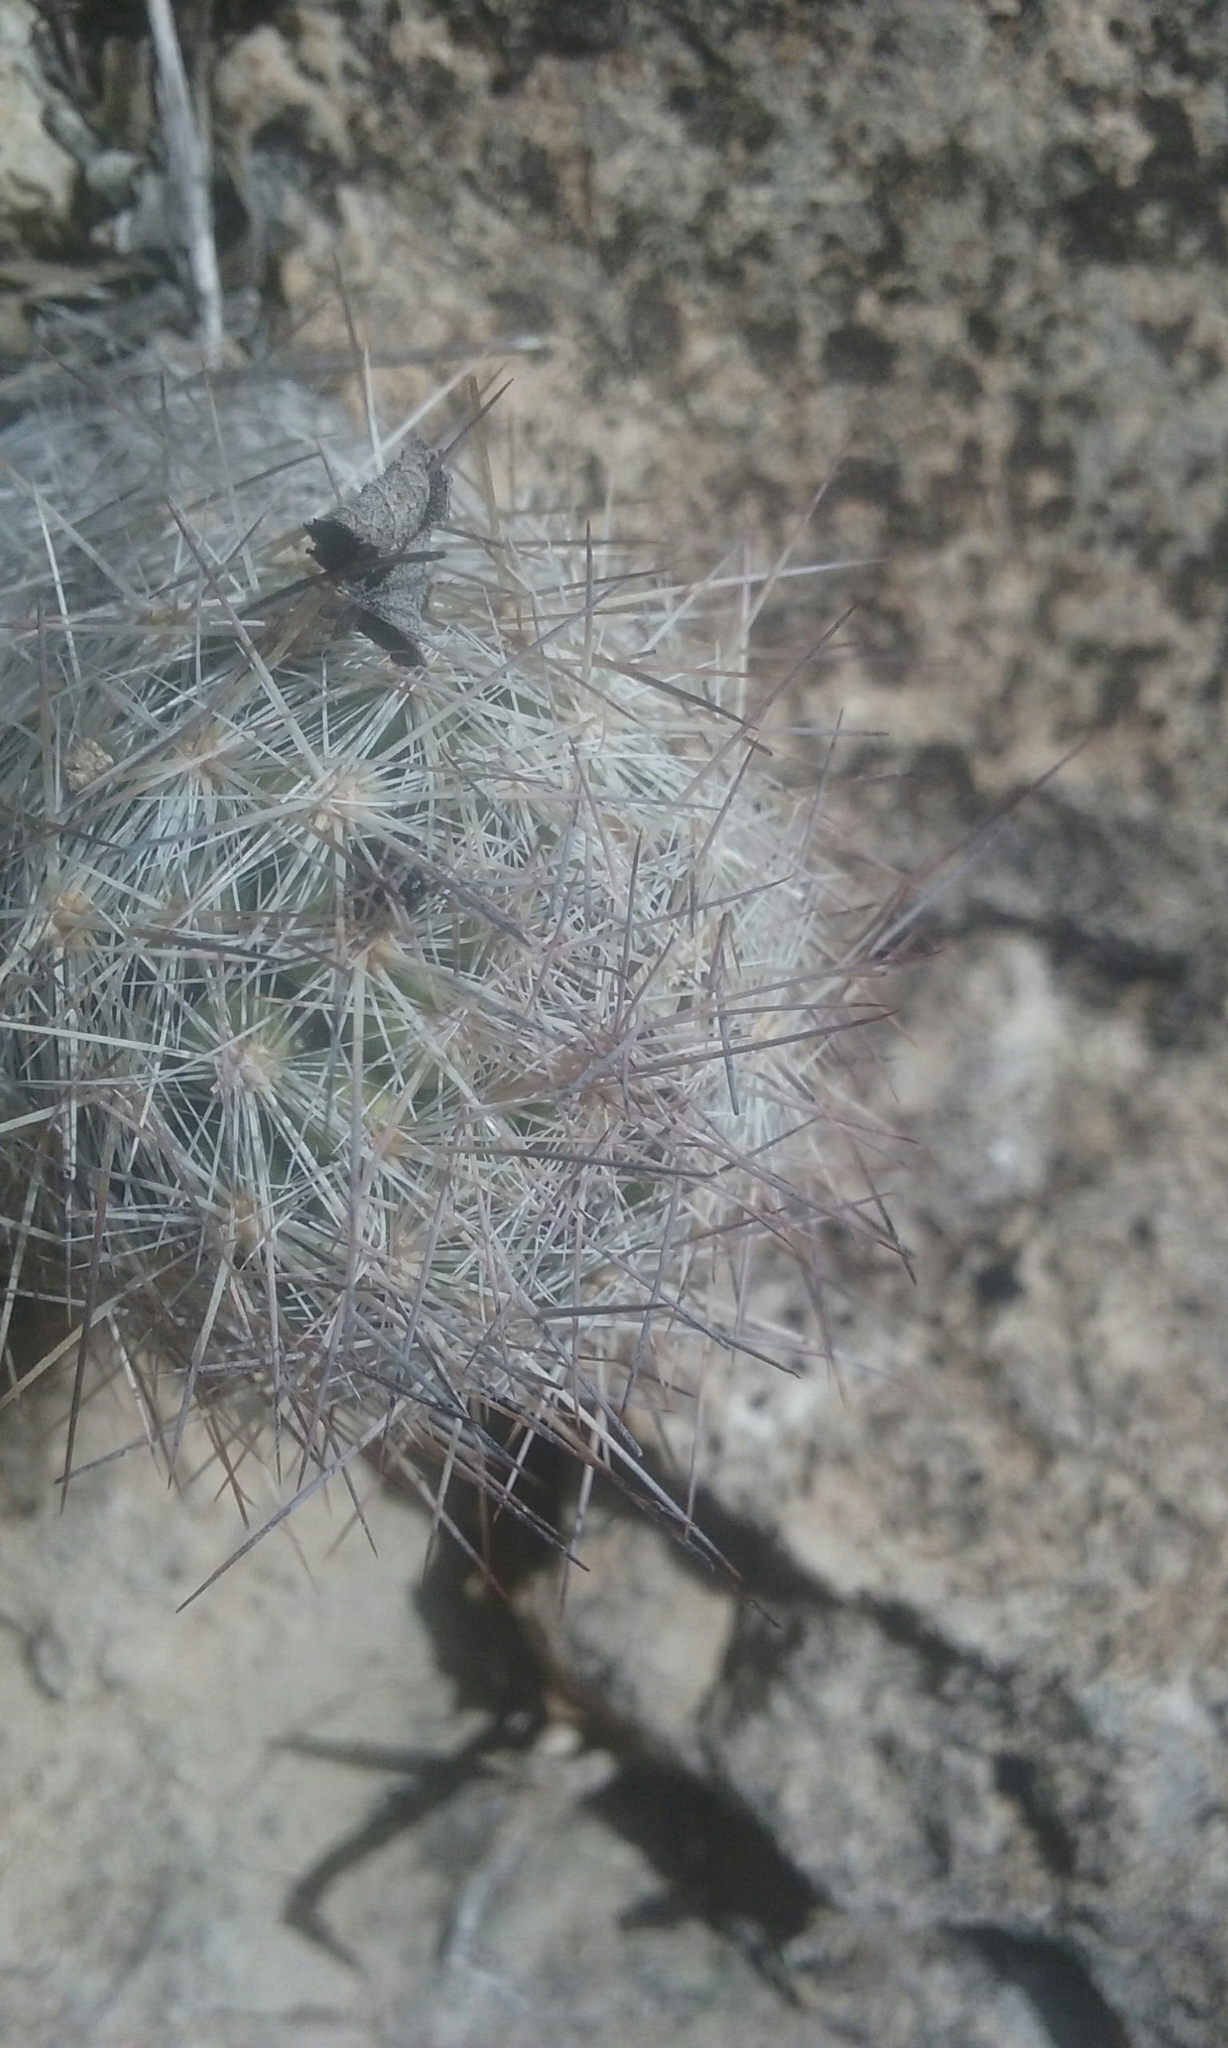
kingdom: Plantae
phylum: Tracheophyta
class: Magnoliopsida
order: Caryophyllales
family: Cactaceae
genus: Pelecyphora
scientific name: Pelecyphora tuberculosa
